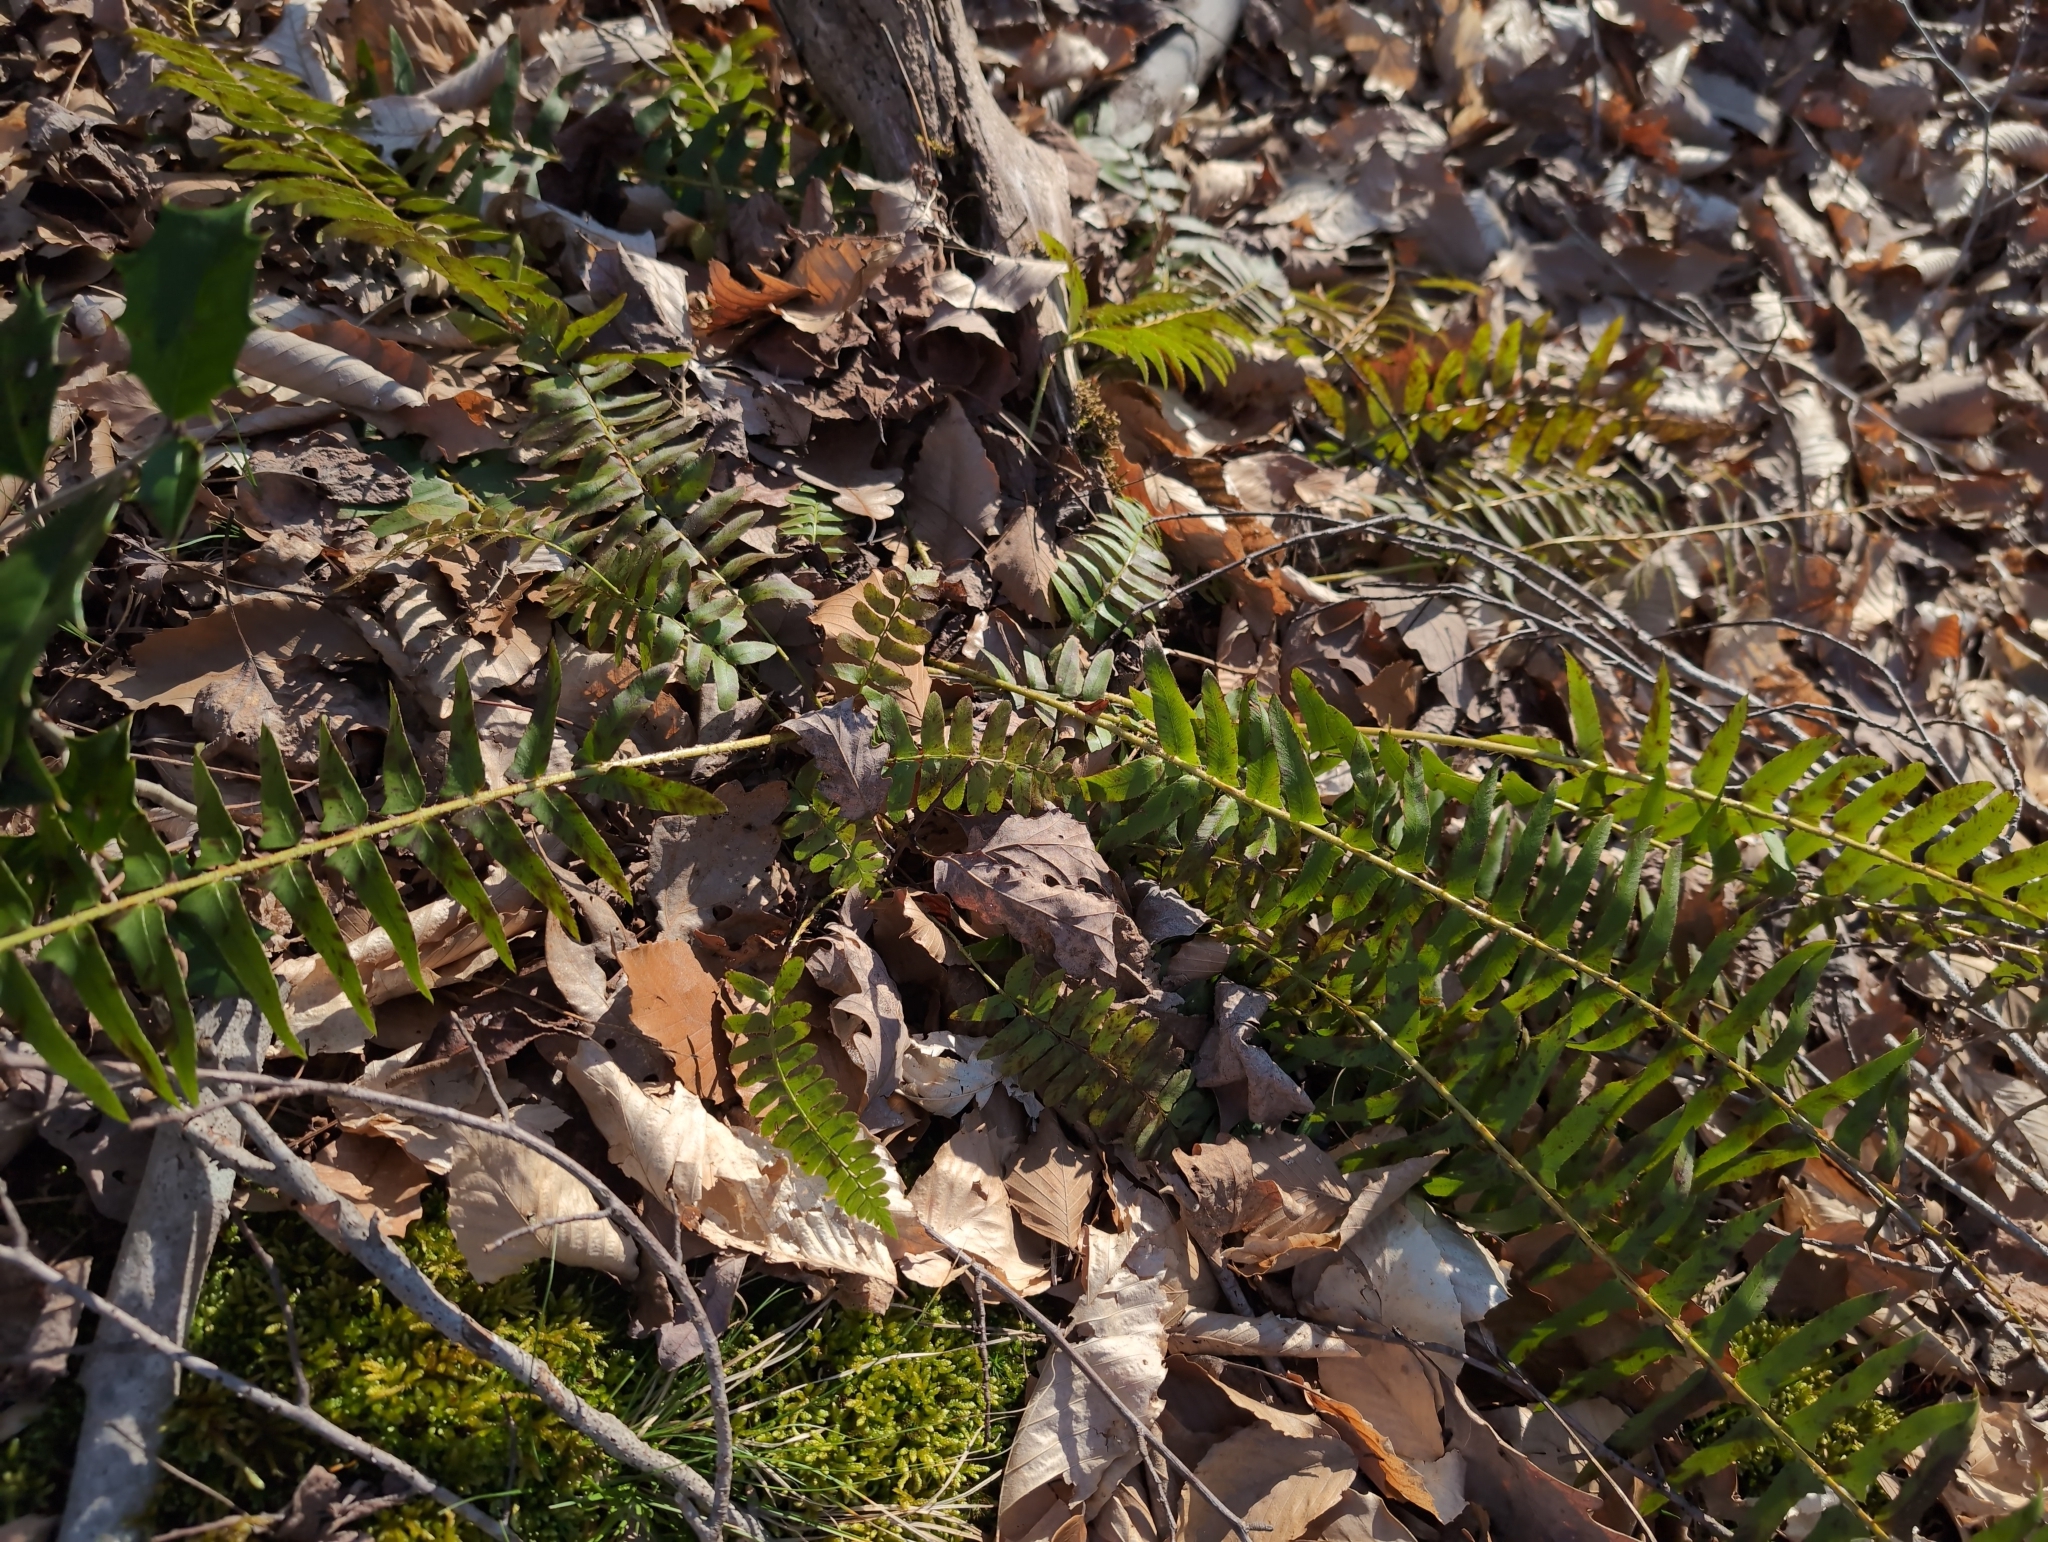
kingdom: Plantae
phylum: Tracheophyta
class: Polypodiopsida
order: Polypodiales
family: Dryopteridaceae
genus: Polystichum
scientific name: Polystichum acrostichoides
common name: Christmas fern
